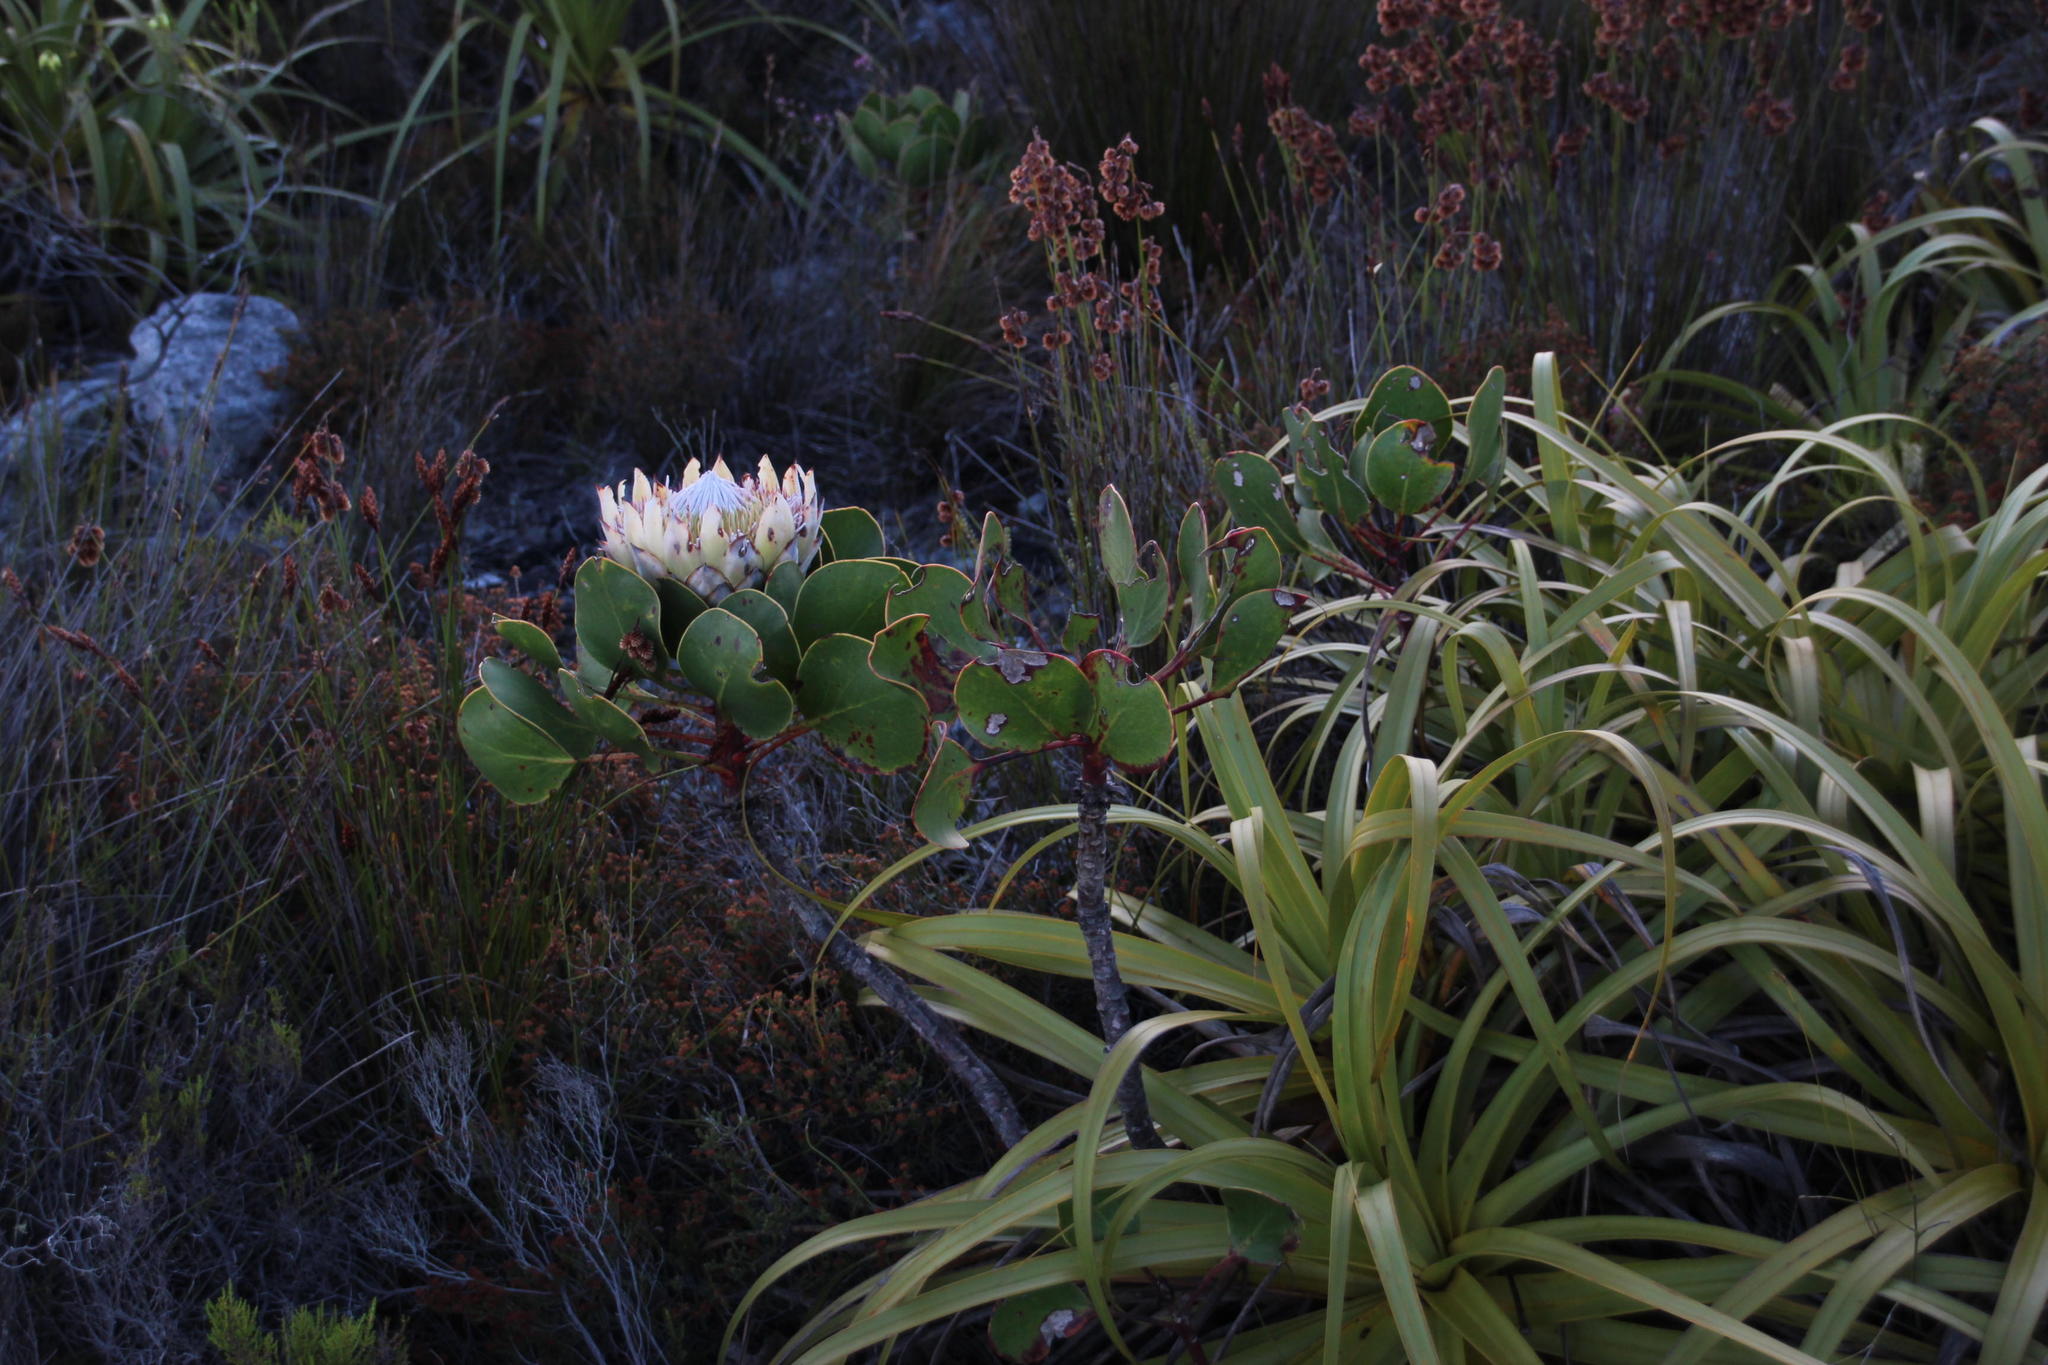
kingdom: Plantae
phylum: Tracheophyta
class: Magnoliopsida
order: Proteales
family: Proteaceae
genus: Protea
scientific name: Protea cynaroides
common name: King protea
